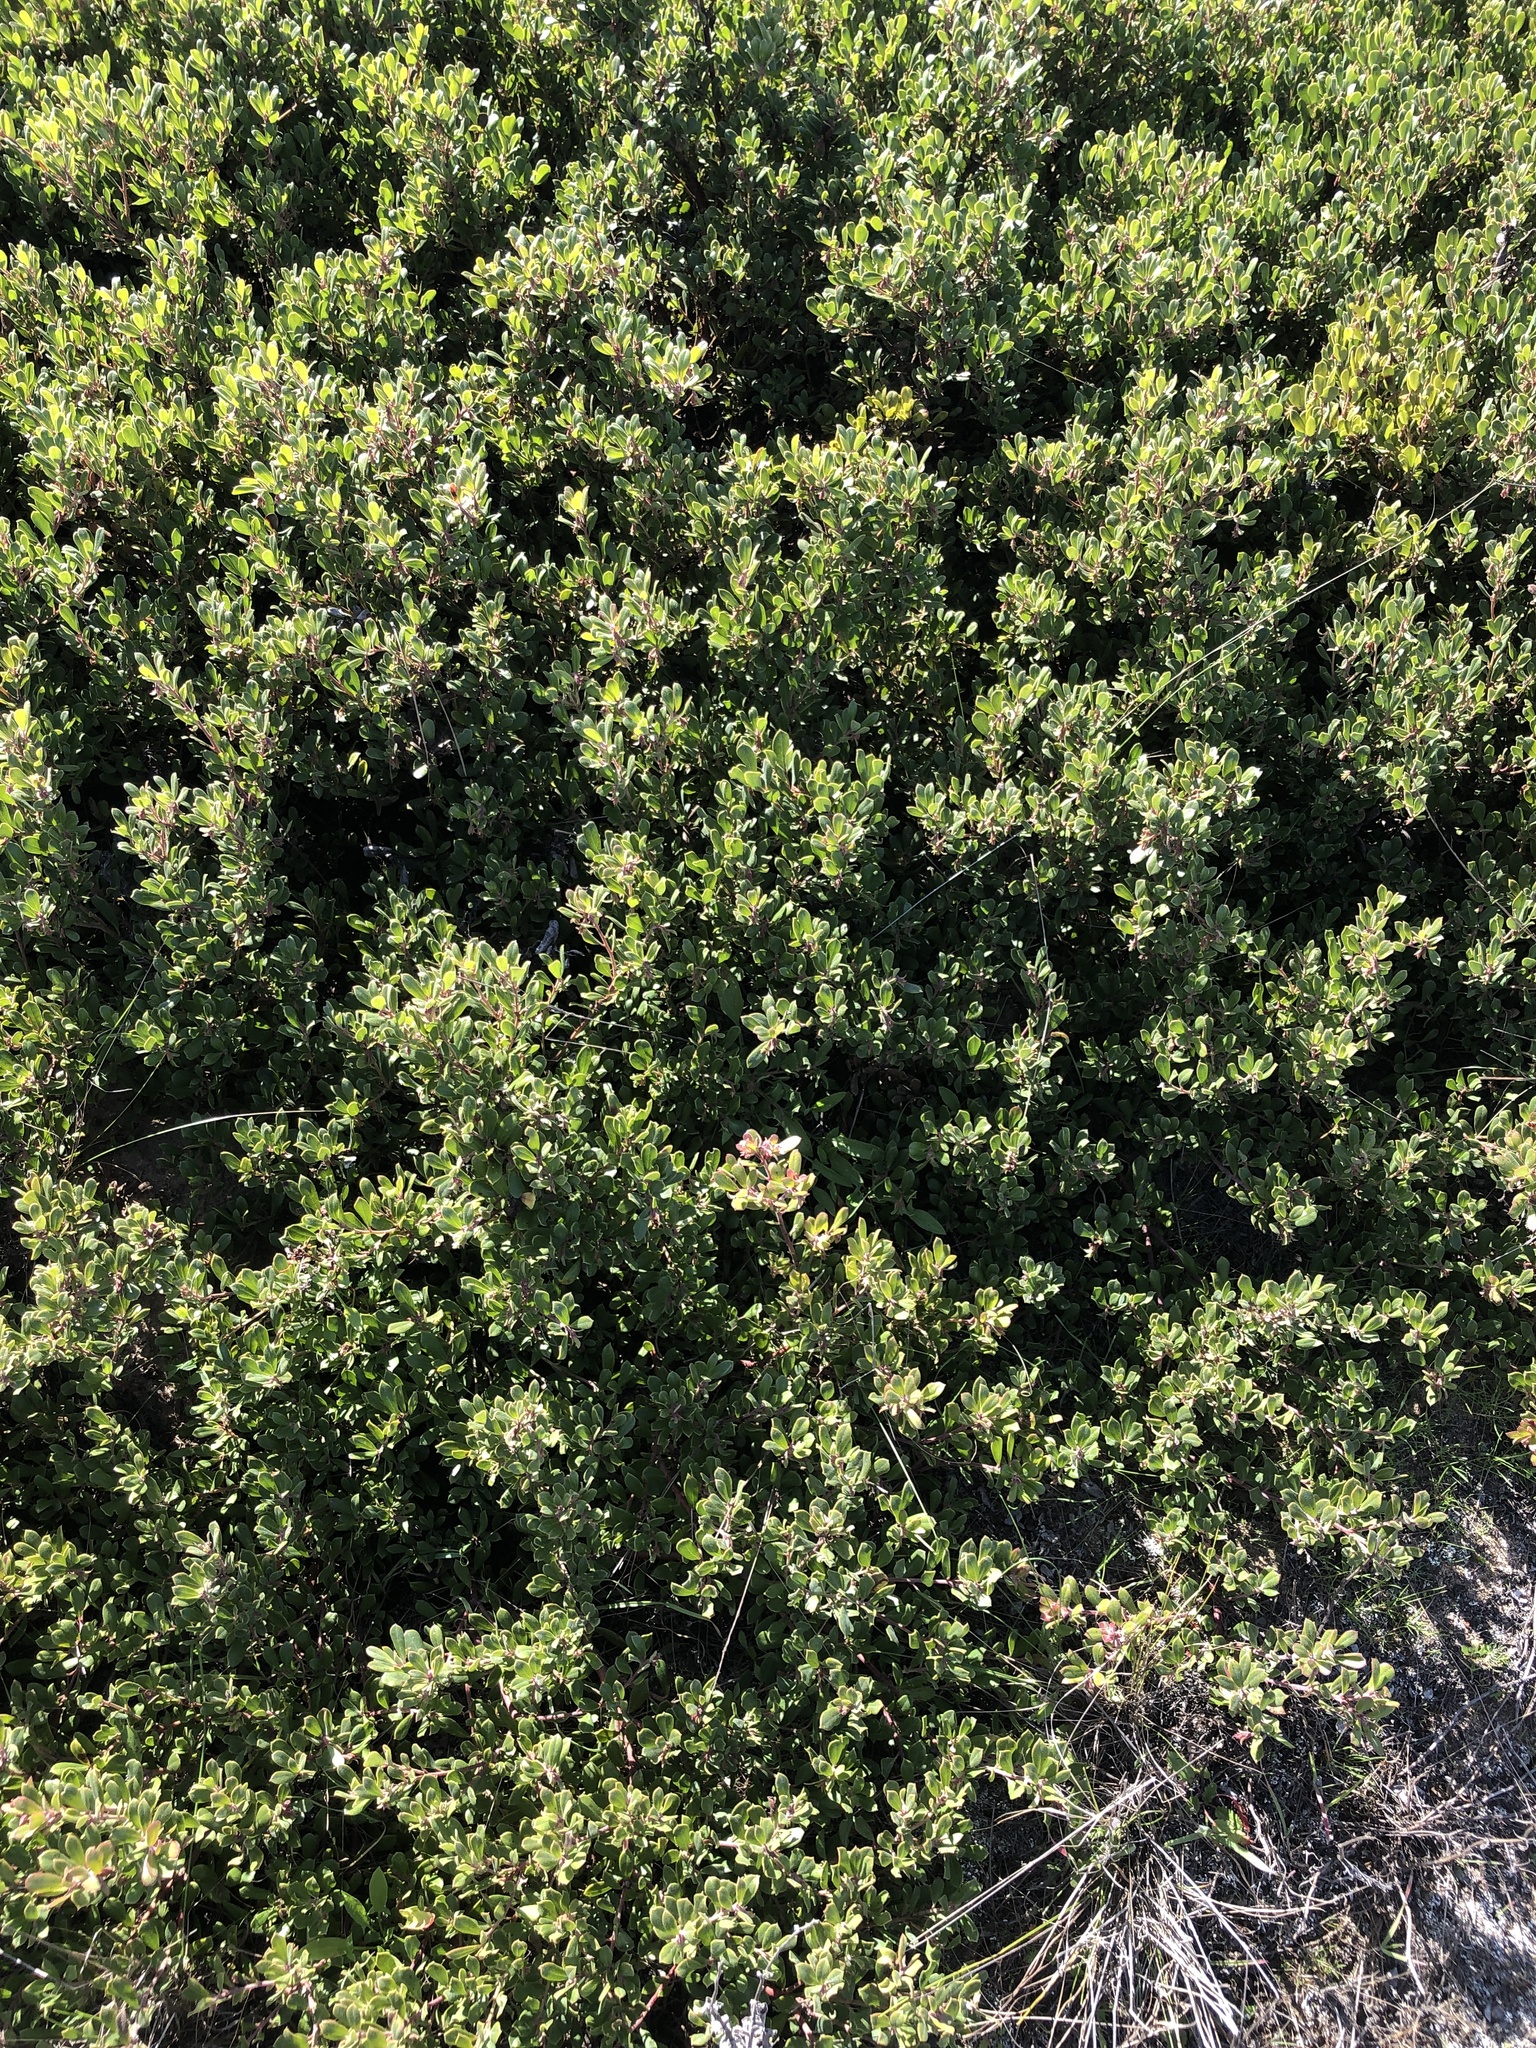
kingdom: Plantae
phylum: Tracheophyta
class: Magnoliopsida
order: Ericales
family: Ericaceae
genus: Arctostaphylos
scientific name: Arctostaphylos pumila
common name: Sandmat manzanita
